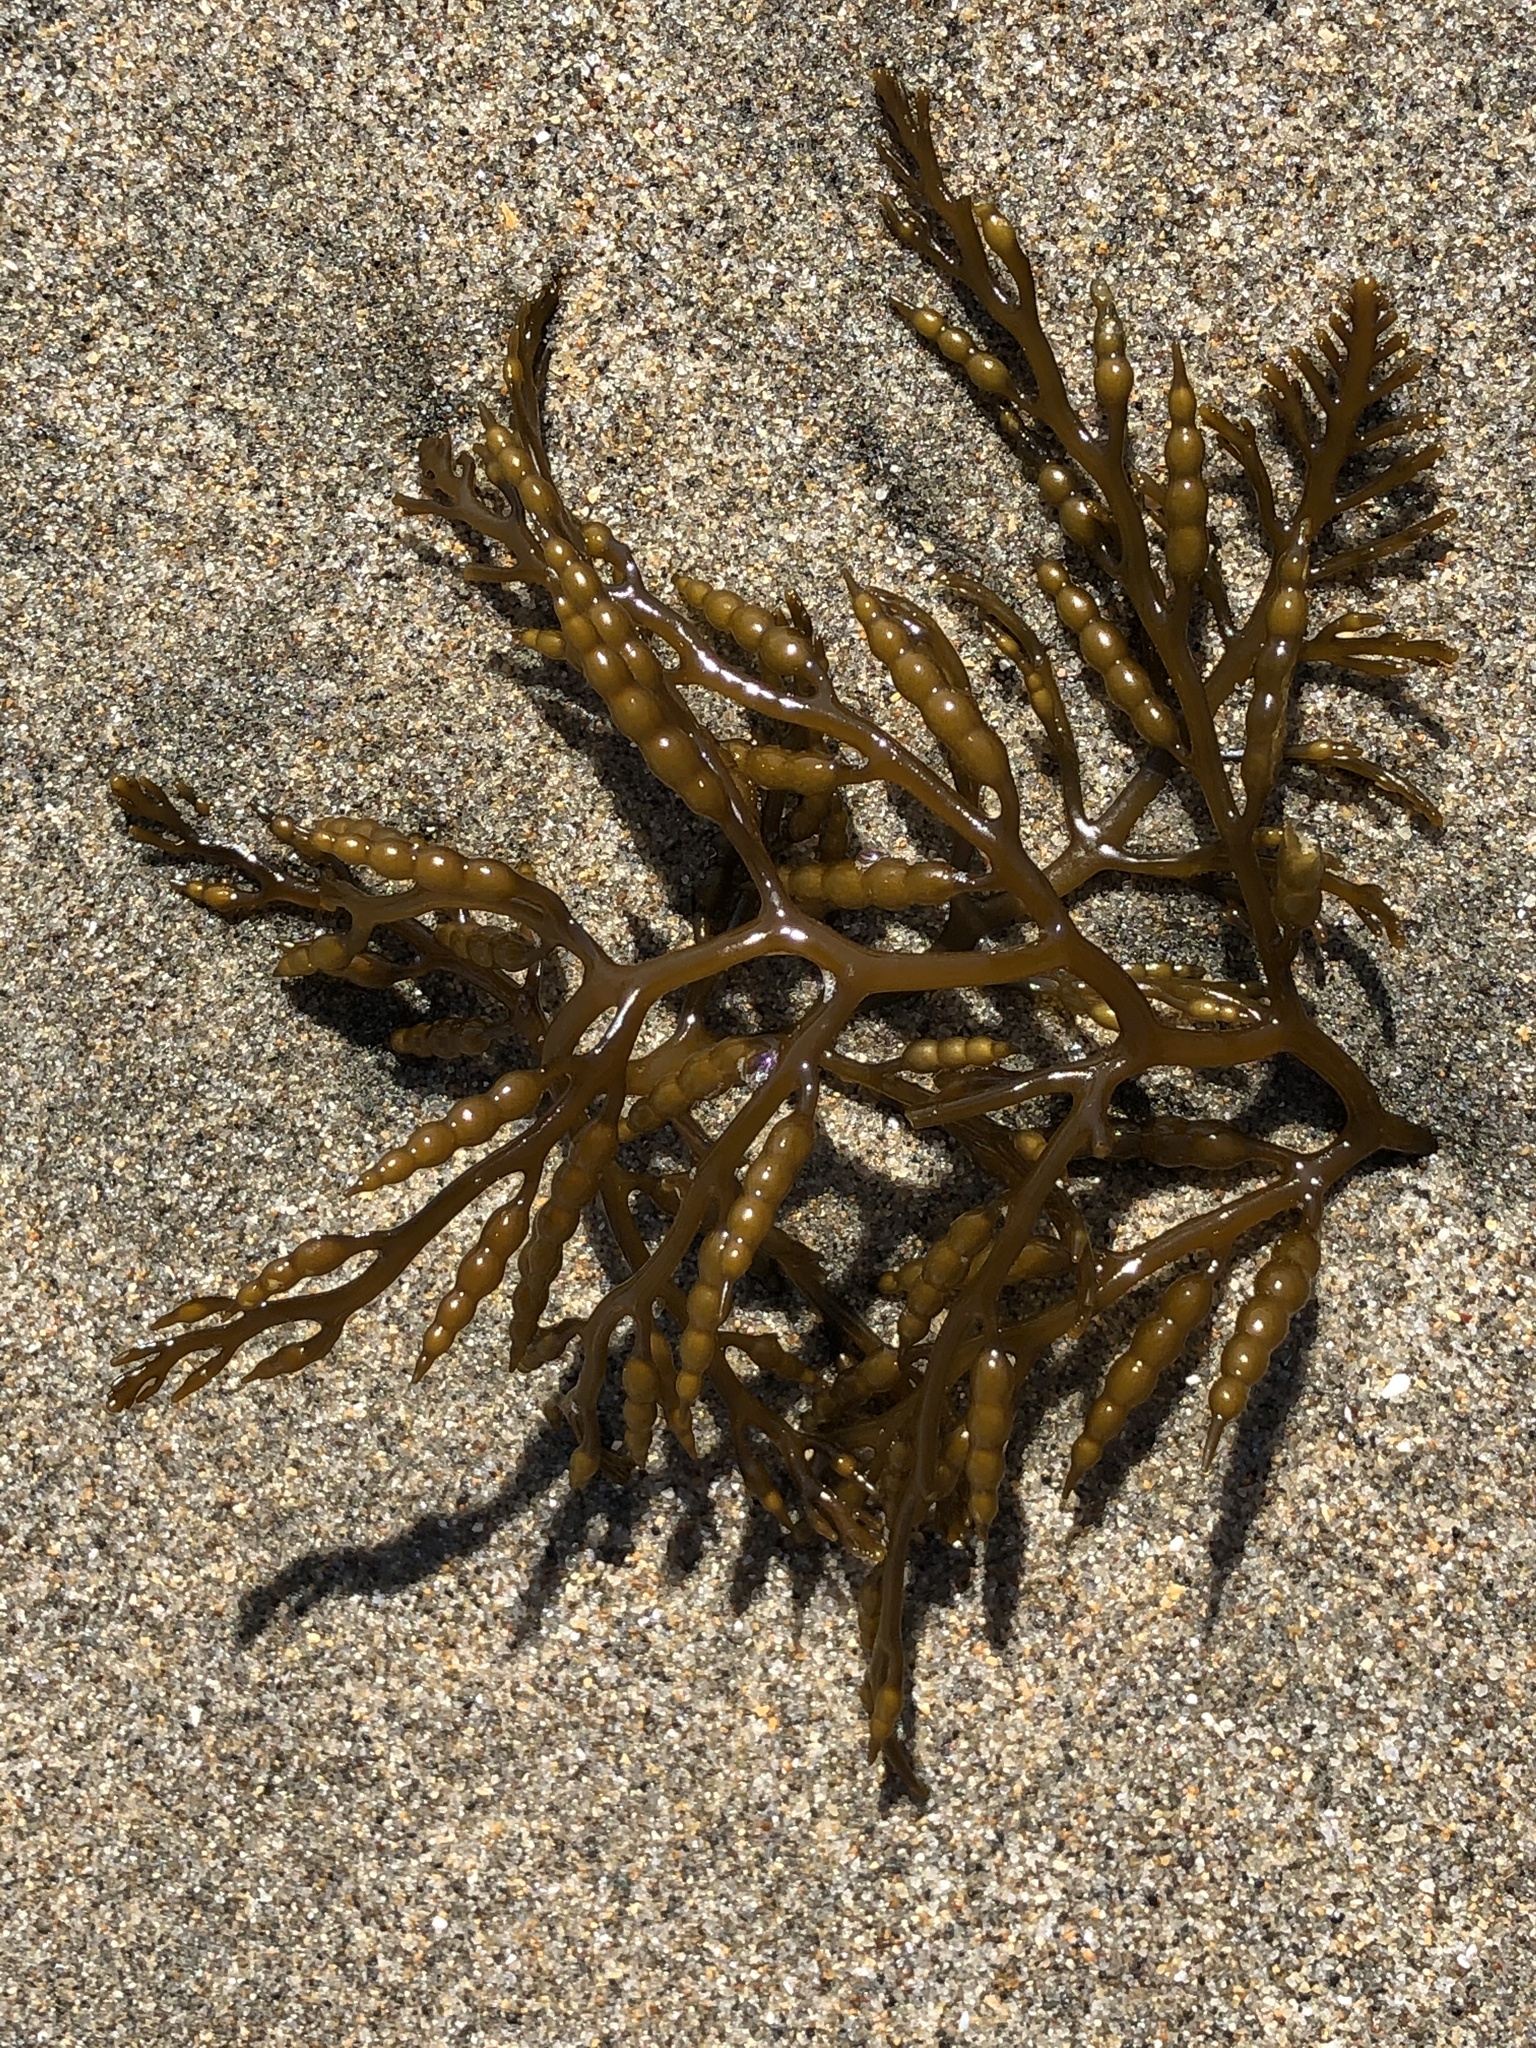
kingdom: Chromista
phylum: Ochrophyta
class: Phaeophyceae
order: Fucales
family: Sargassaceae
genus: Stephanocystis
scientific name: Stephanocystis
